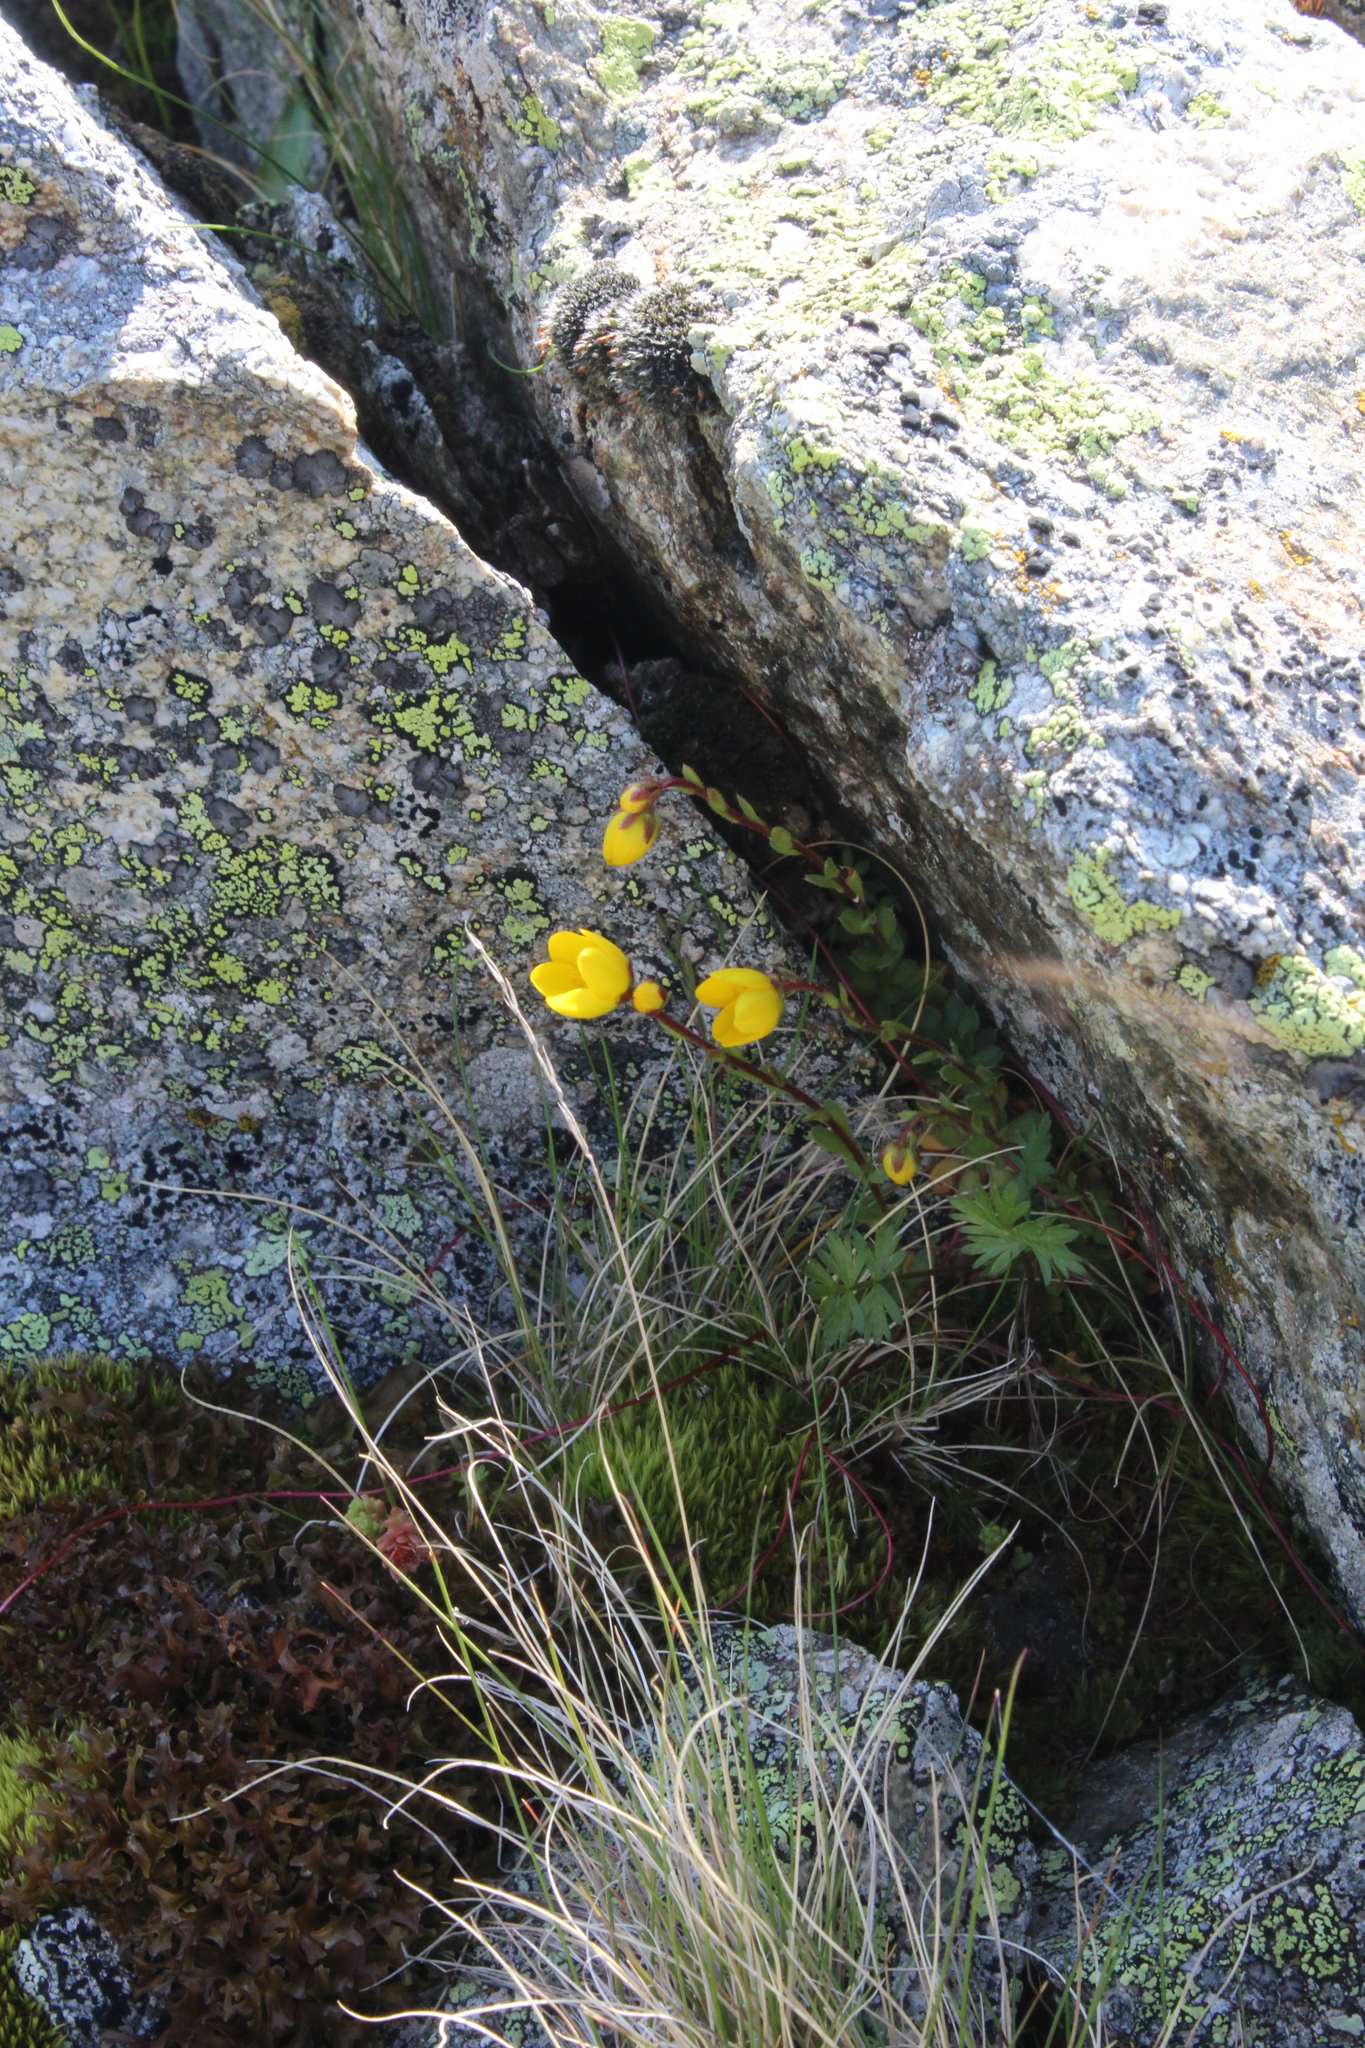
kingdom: Plantae
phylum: Tracheophyta
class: Magnoliopsida
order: Saxifragales
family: Saxifragaceae
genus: Saxifraga
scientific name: Saxifraga flagellaris
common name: Spider saxifrage
